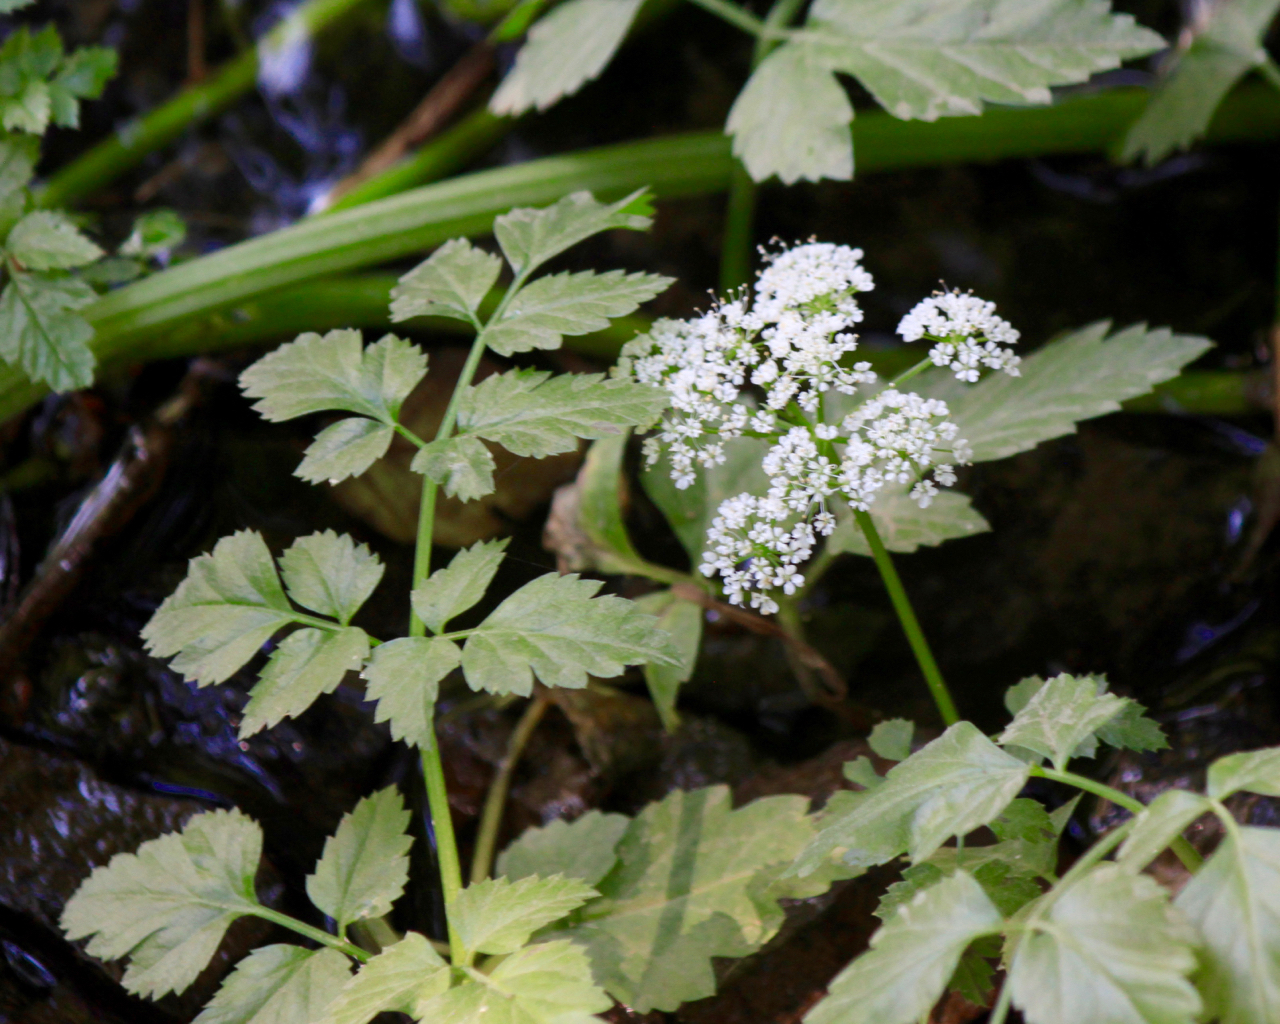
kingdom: Plantae
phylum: Tracheophyta
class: Magnoliopsida
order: Apiales
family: Apiaceae
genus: Oenanthe
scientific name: Oenanthe sarmentosa
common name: American water-parsley
